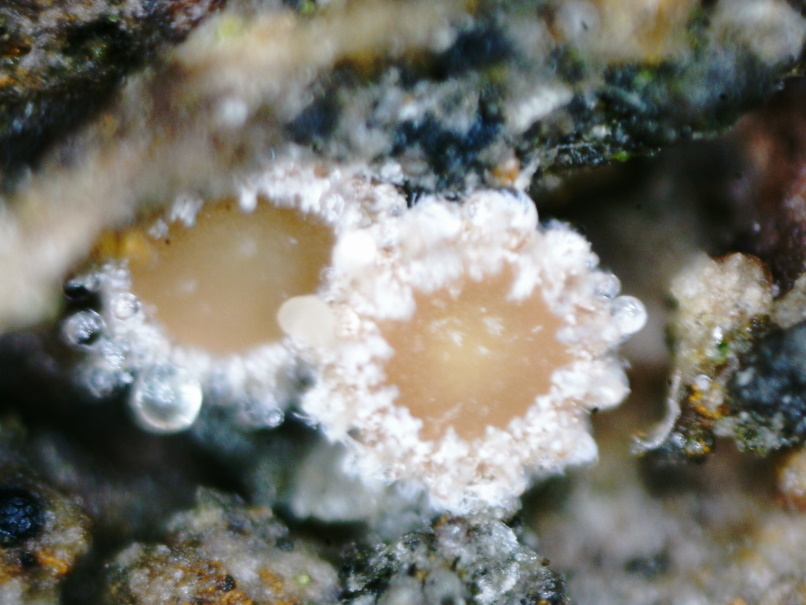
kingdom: Fungi
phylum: Ascomycota
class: Leotiomycetes
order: Helotiales
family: Lachnaceae
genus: Lachnum
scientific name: Lachnum corticale
